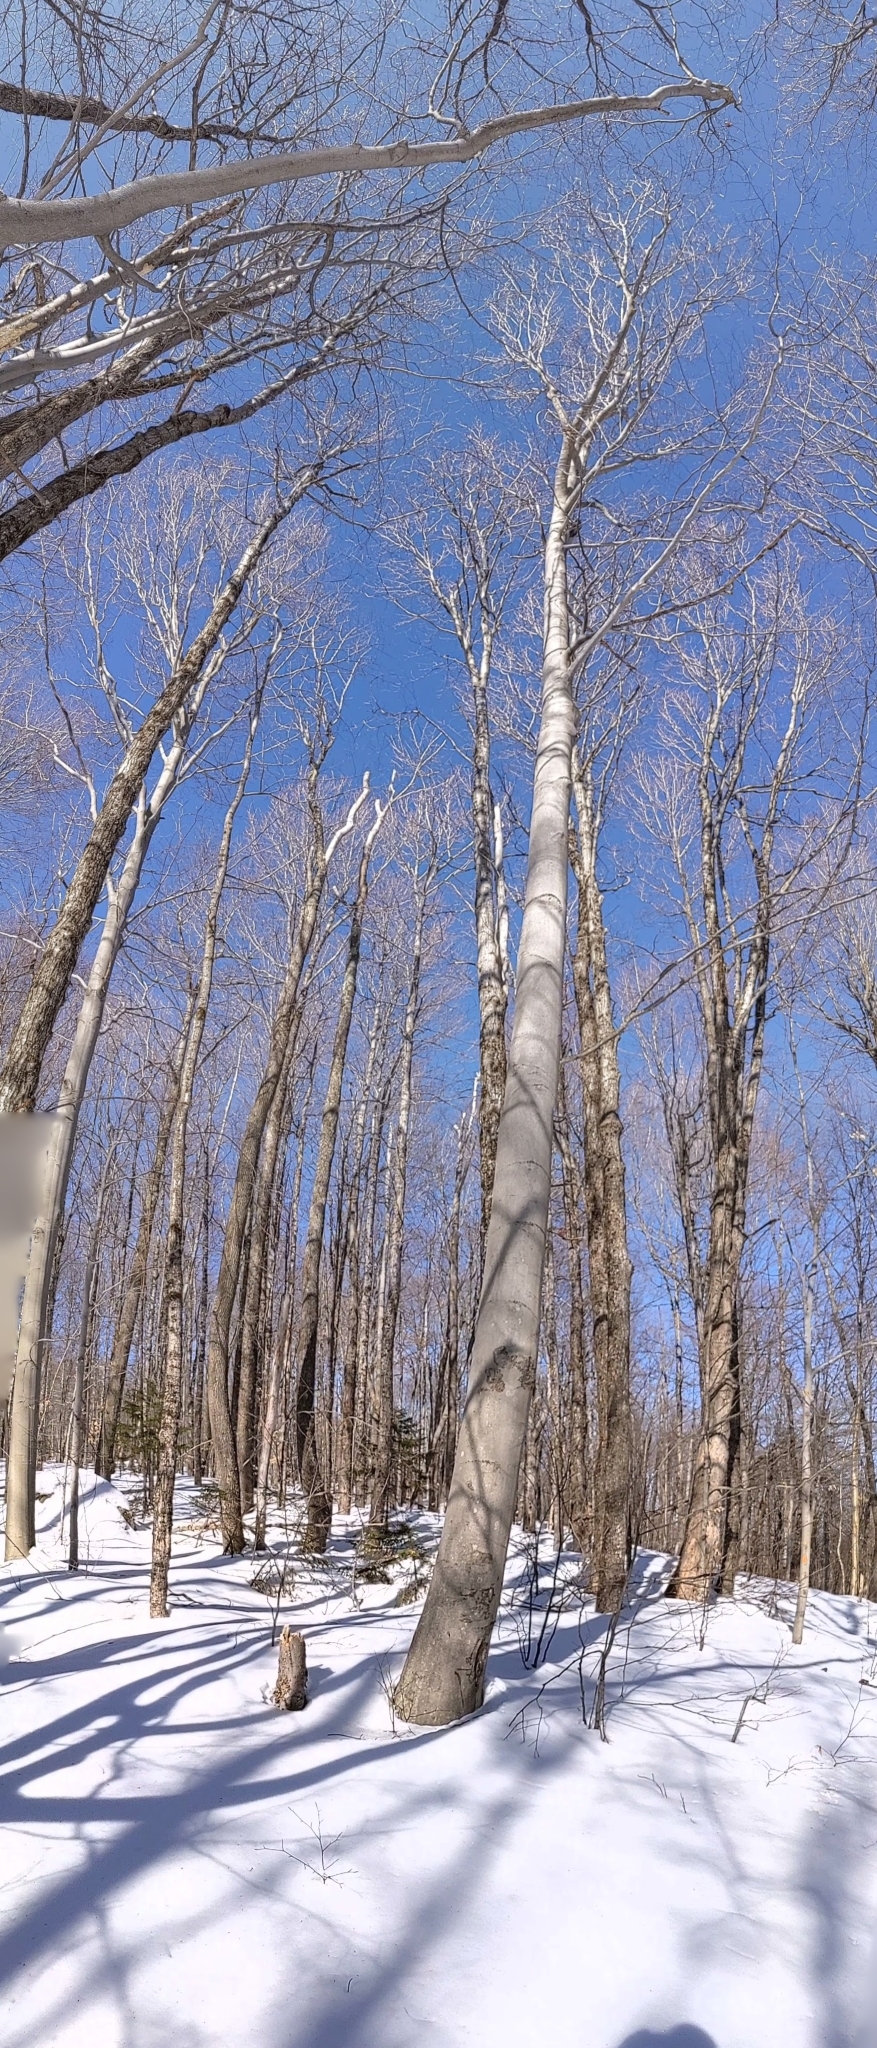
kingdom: Plantae
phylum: Tracheophyta
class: Magnoliopsida
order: Fagales
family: Fagaceae
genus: Fagus
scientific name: Fagus grandifolia
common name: American beech
